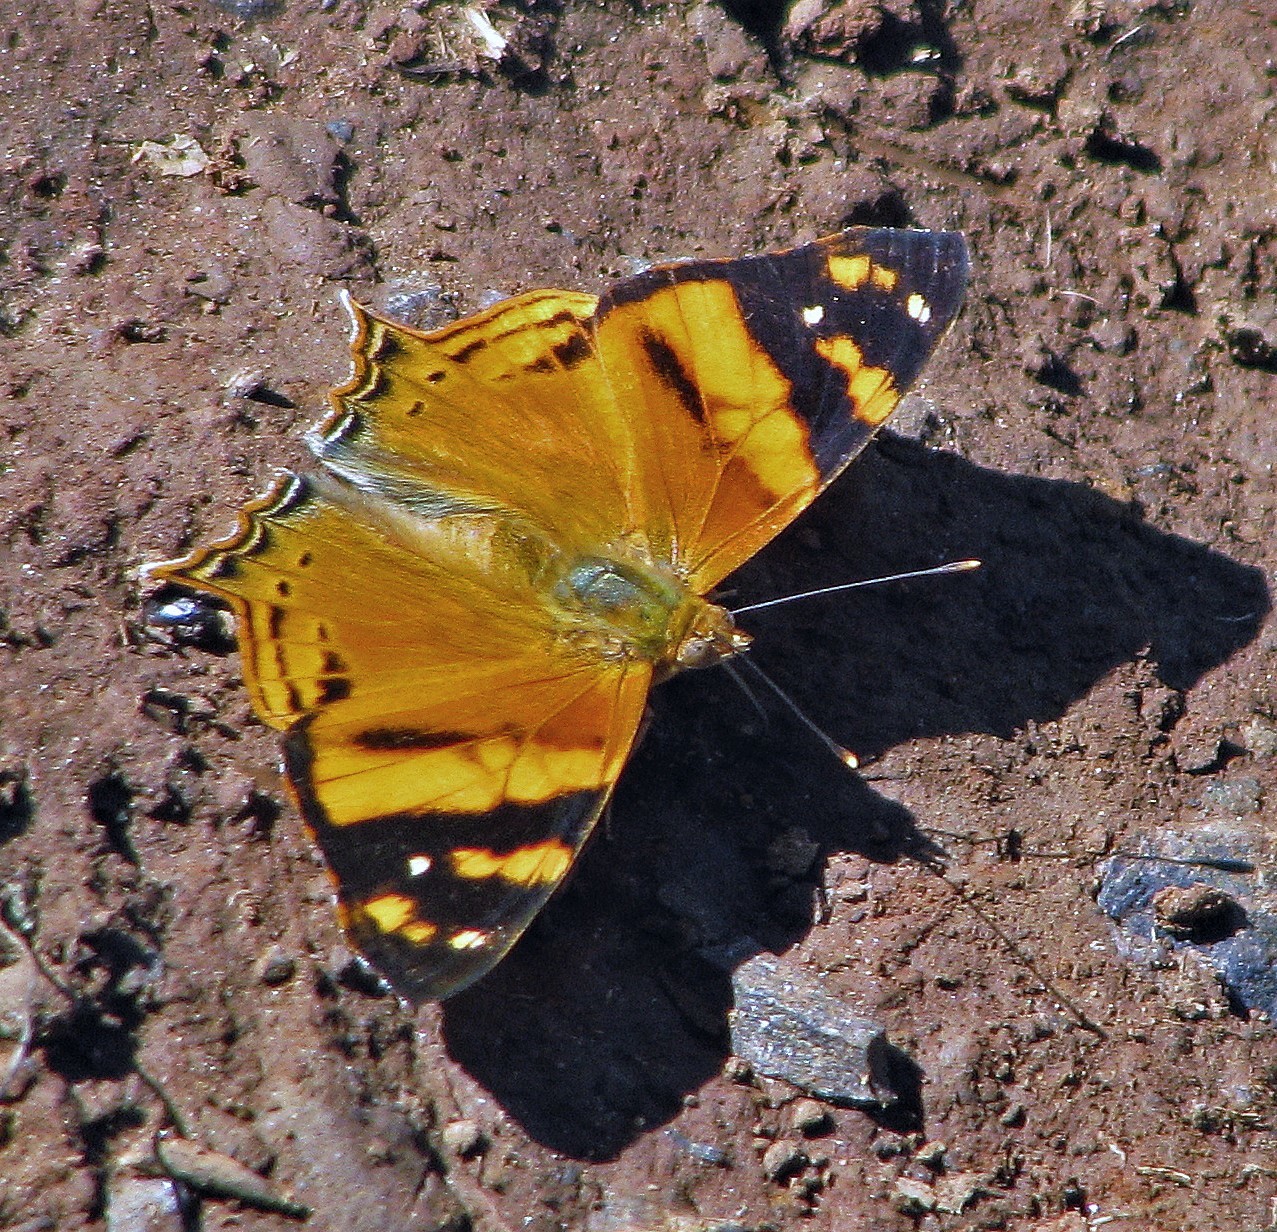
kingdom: Animalia
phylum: Arthropoda
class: Insecta
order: Lepidoptera
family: Nymphalidae
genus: Hypanartia
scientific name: Hypanartia lethe
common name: Orange mapwing
